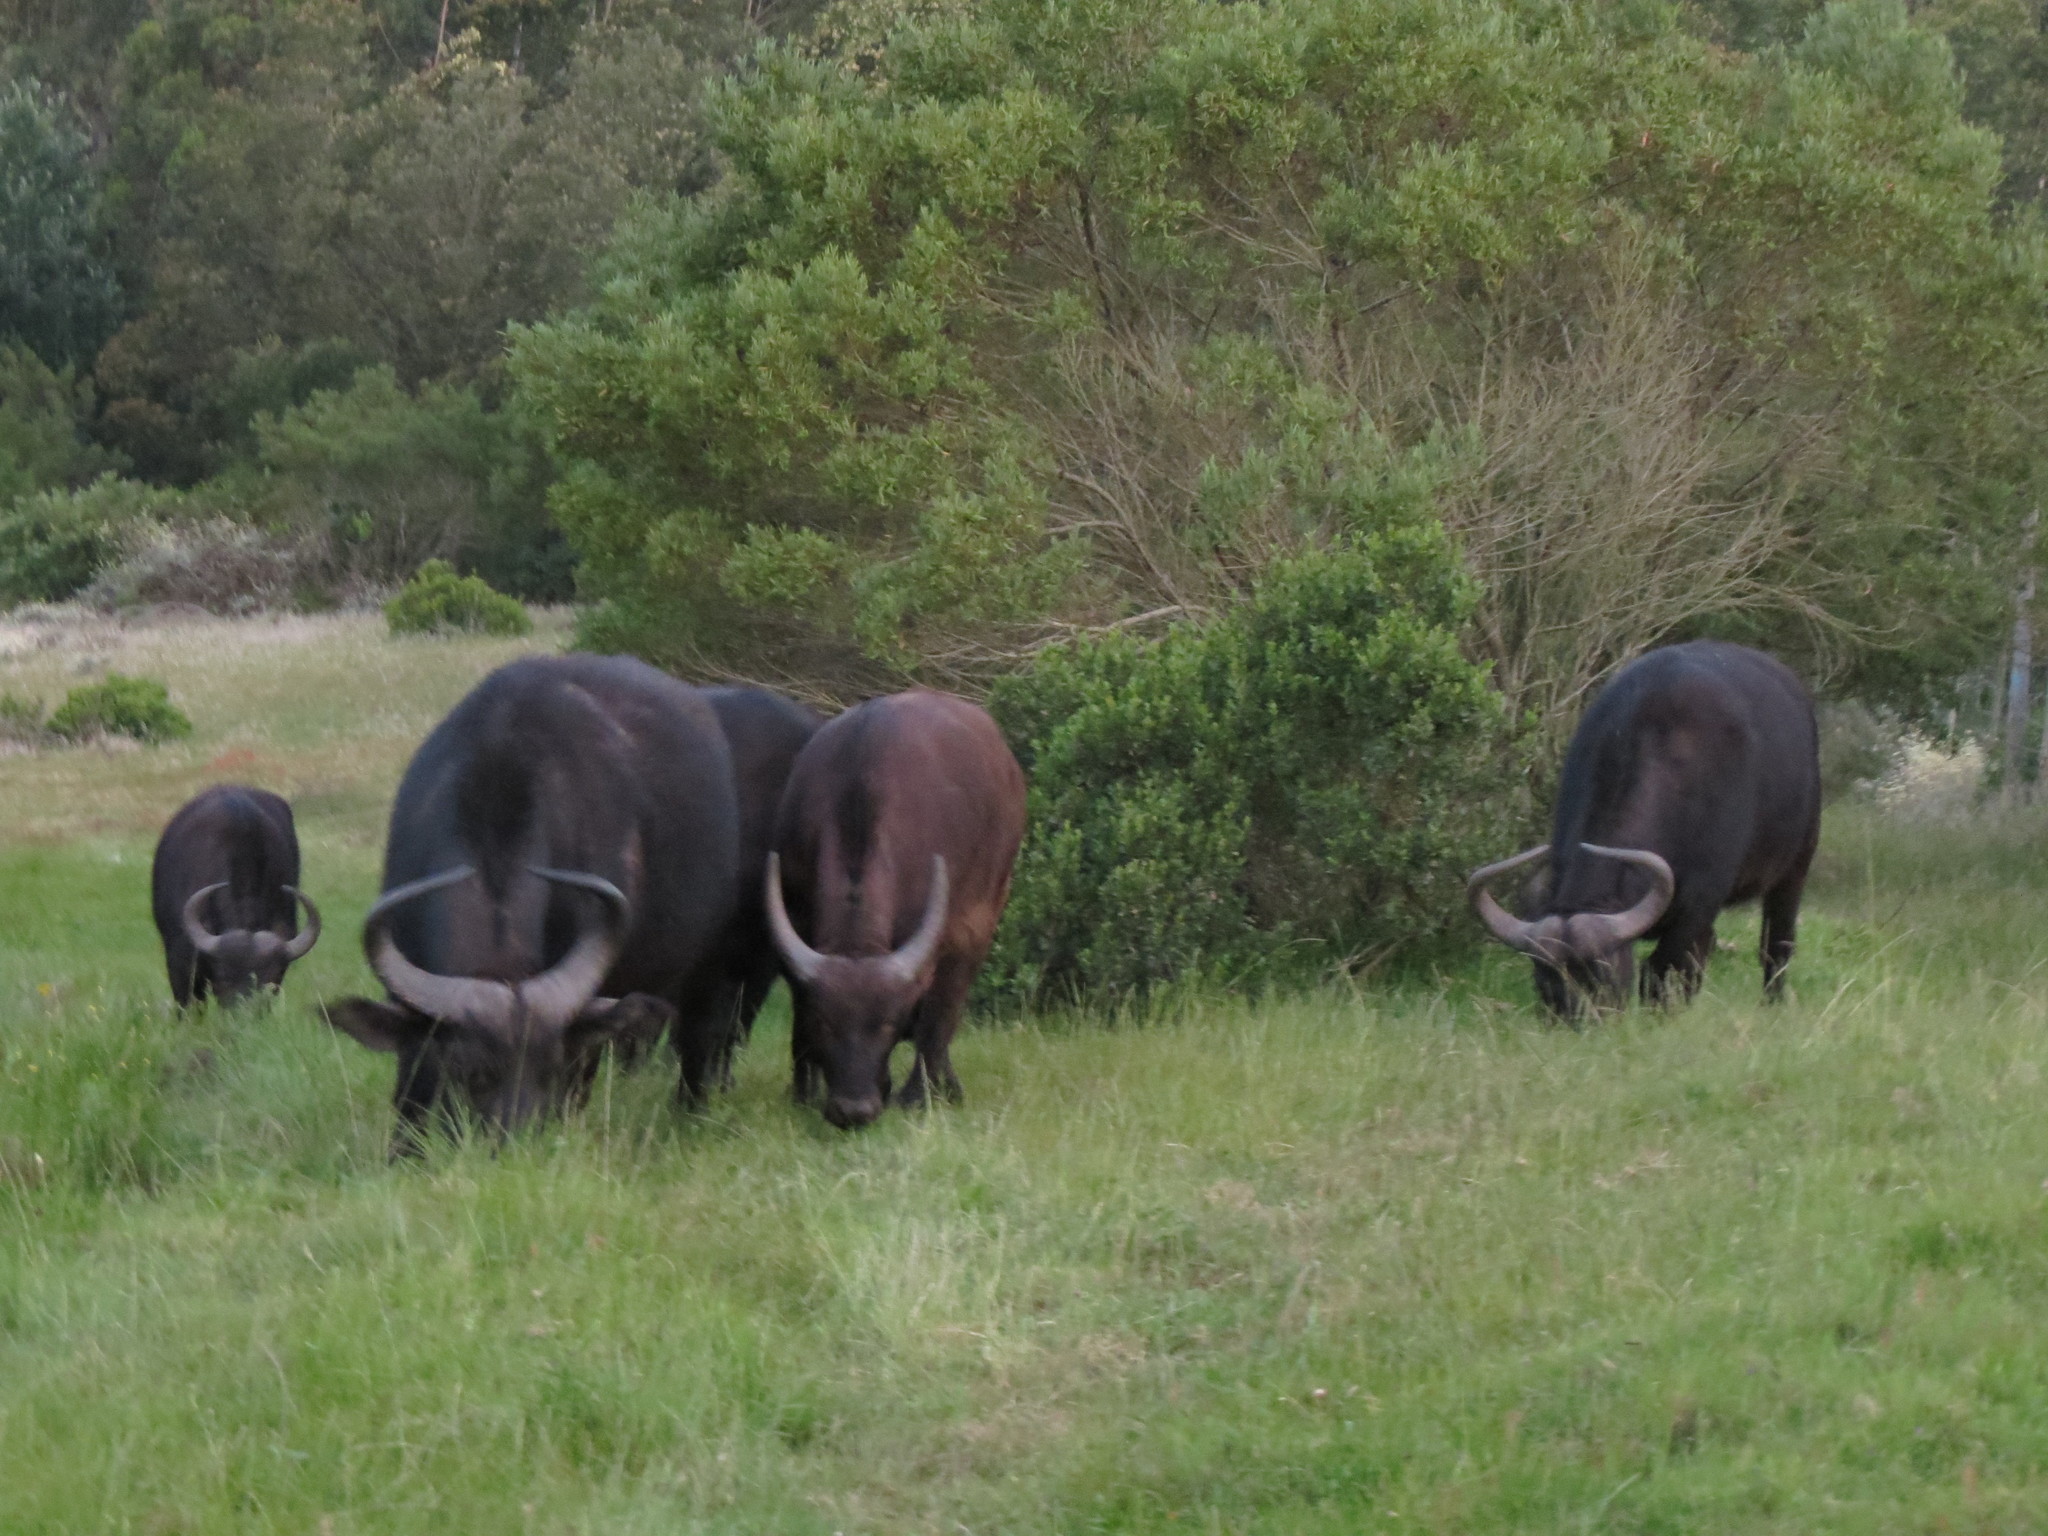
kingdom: Animalia
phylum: Chordata
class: Mammalia
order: Artiodactyla
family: Bovidae
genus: Syncerus
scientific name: Syncerus caffer
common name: African buffalo
